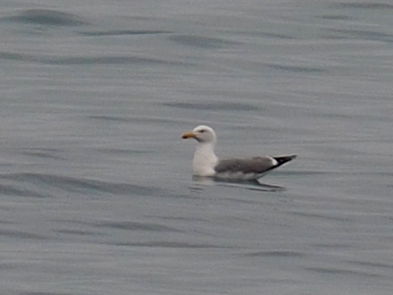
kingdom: Animalia
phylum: Chordata
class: Aves
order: Charadriiformes
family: Laridae
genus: Larus
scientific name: Larus michahellis
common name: Yellow-legged gull
